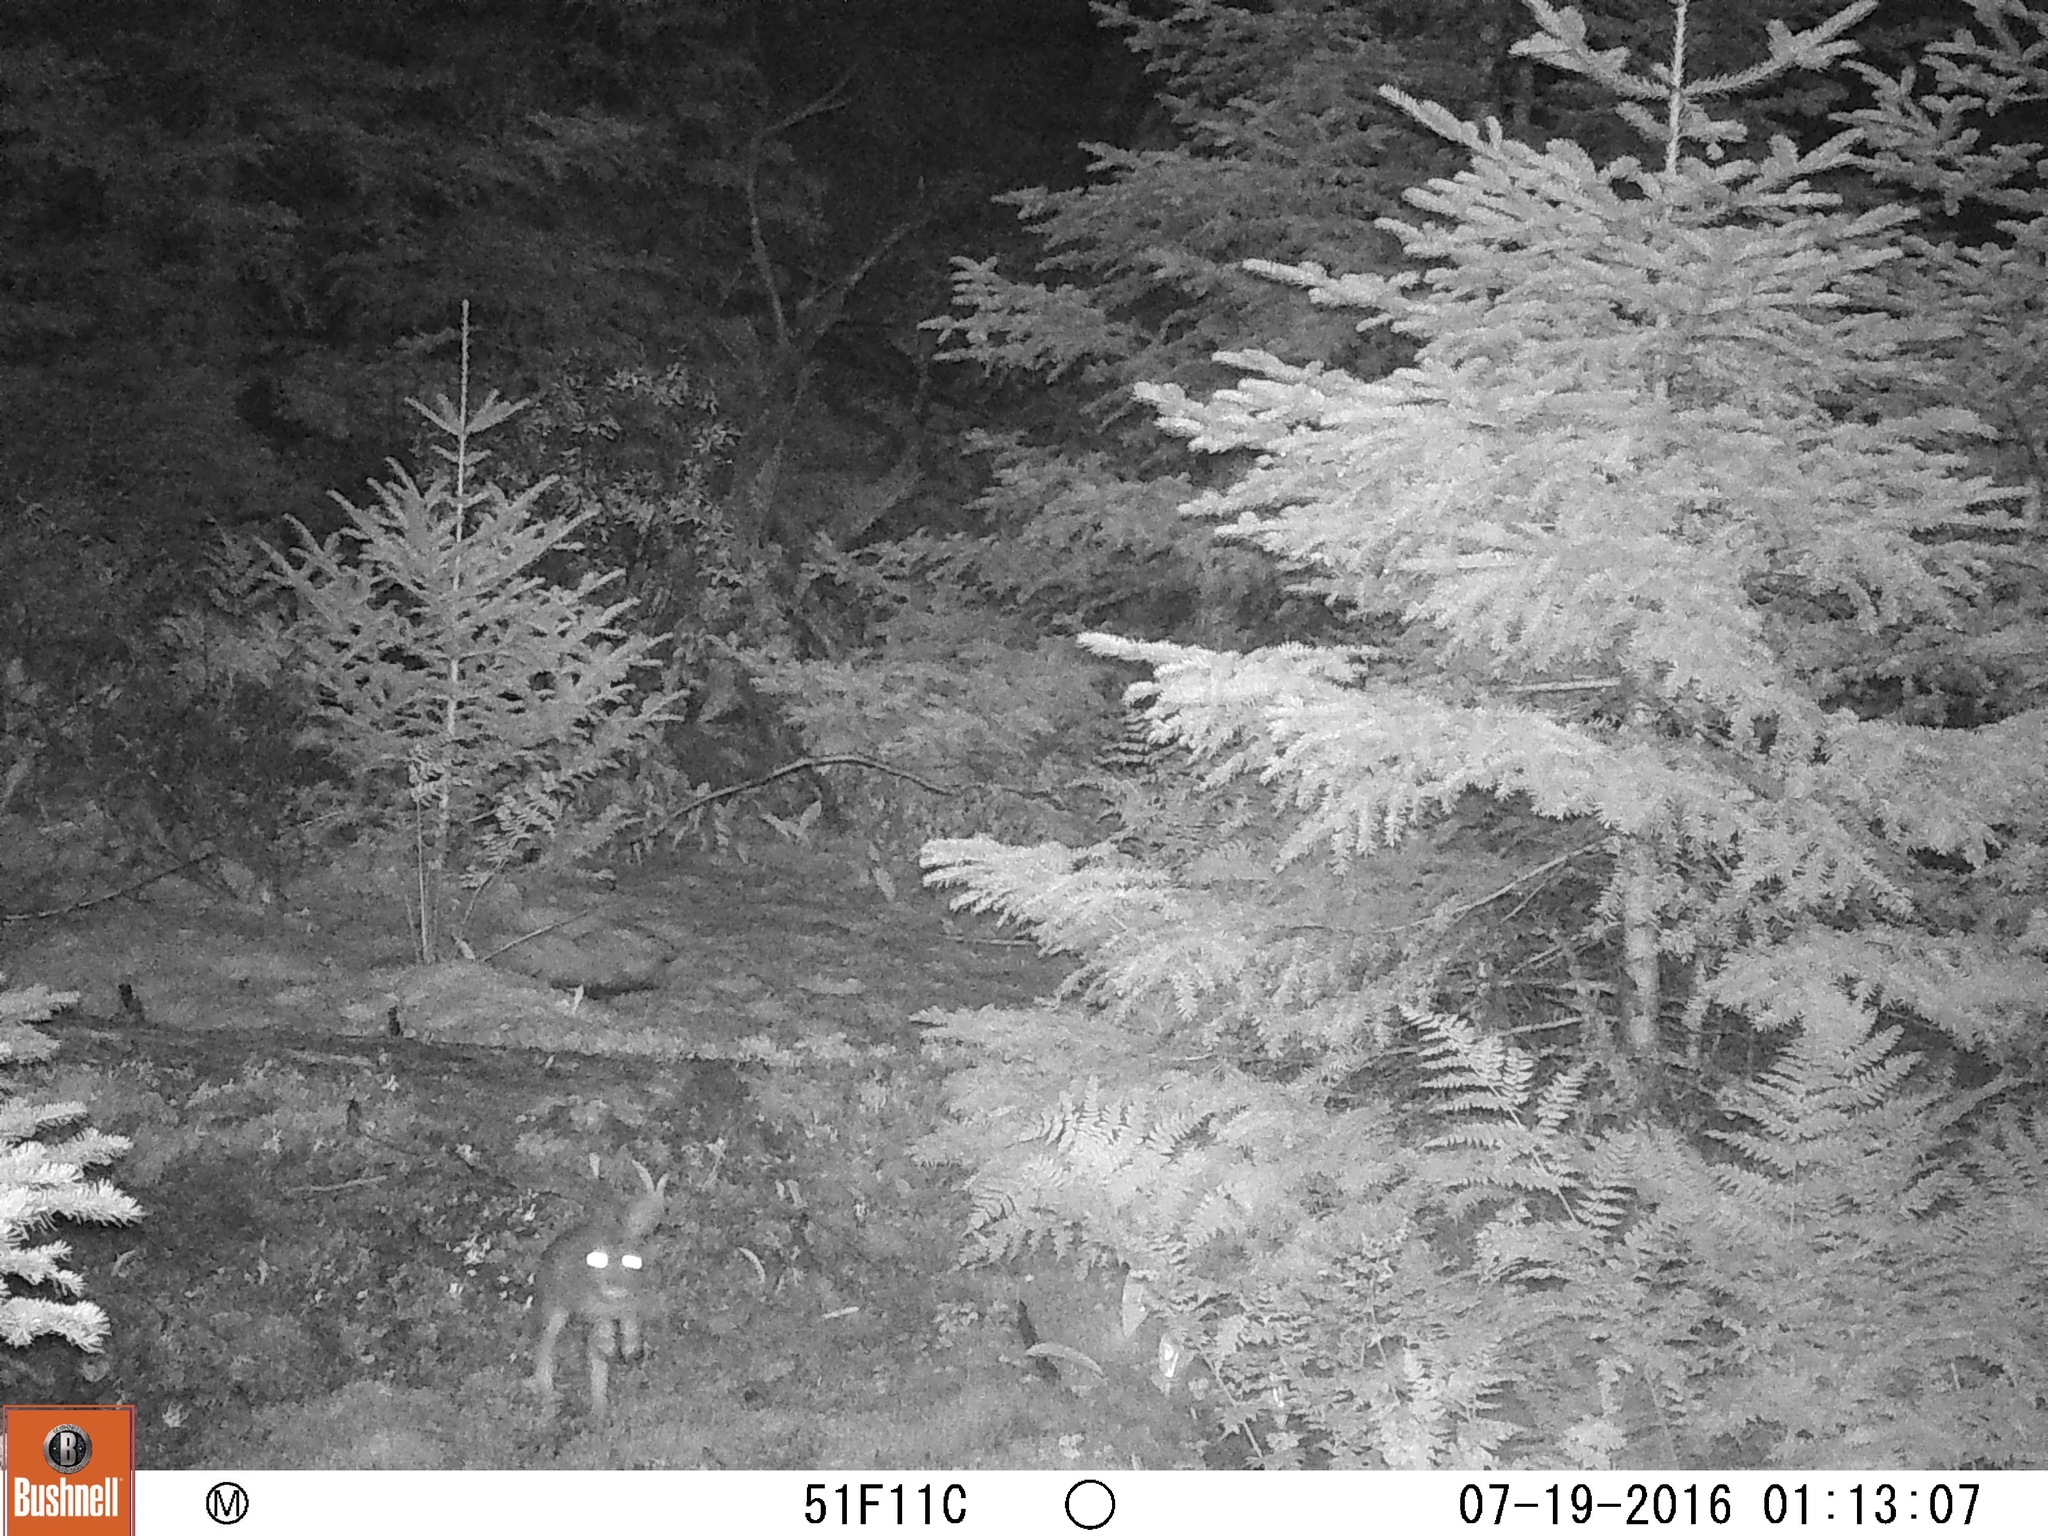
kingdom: Animalia
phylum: Chordata
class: Mammalia
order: Lagomorpha
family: Leporidae
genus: Lepus
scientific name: Lepus americanus
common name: Snowshoe hare
